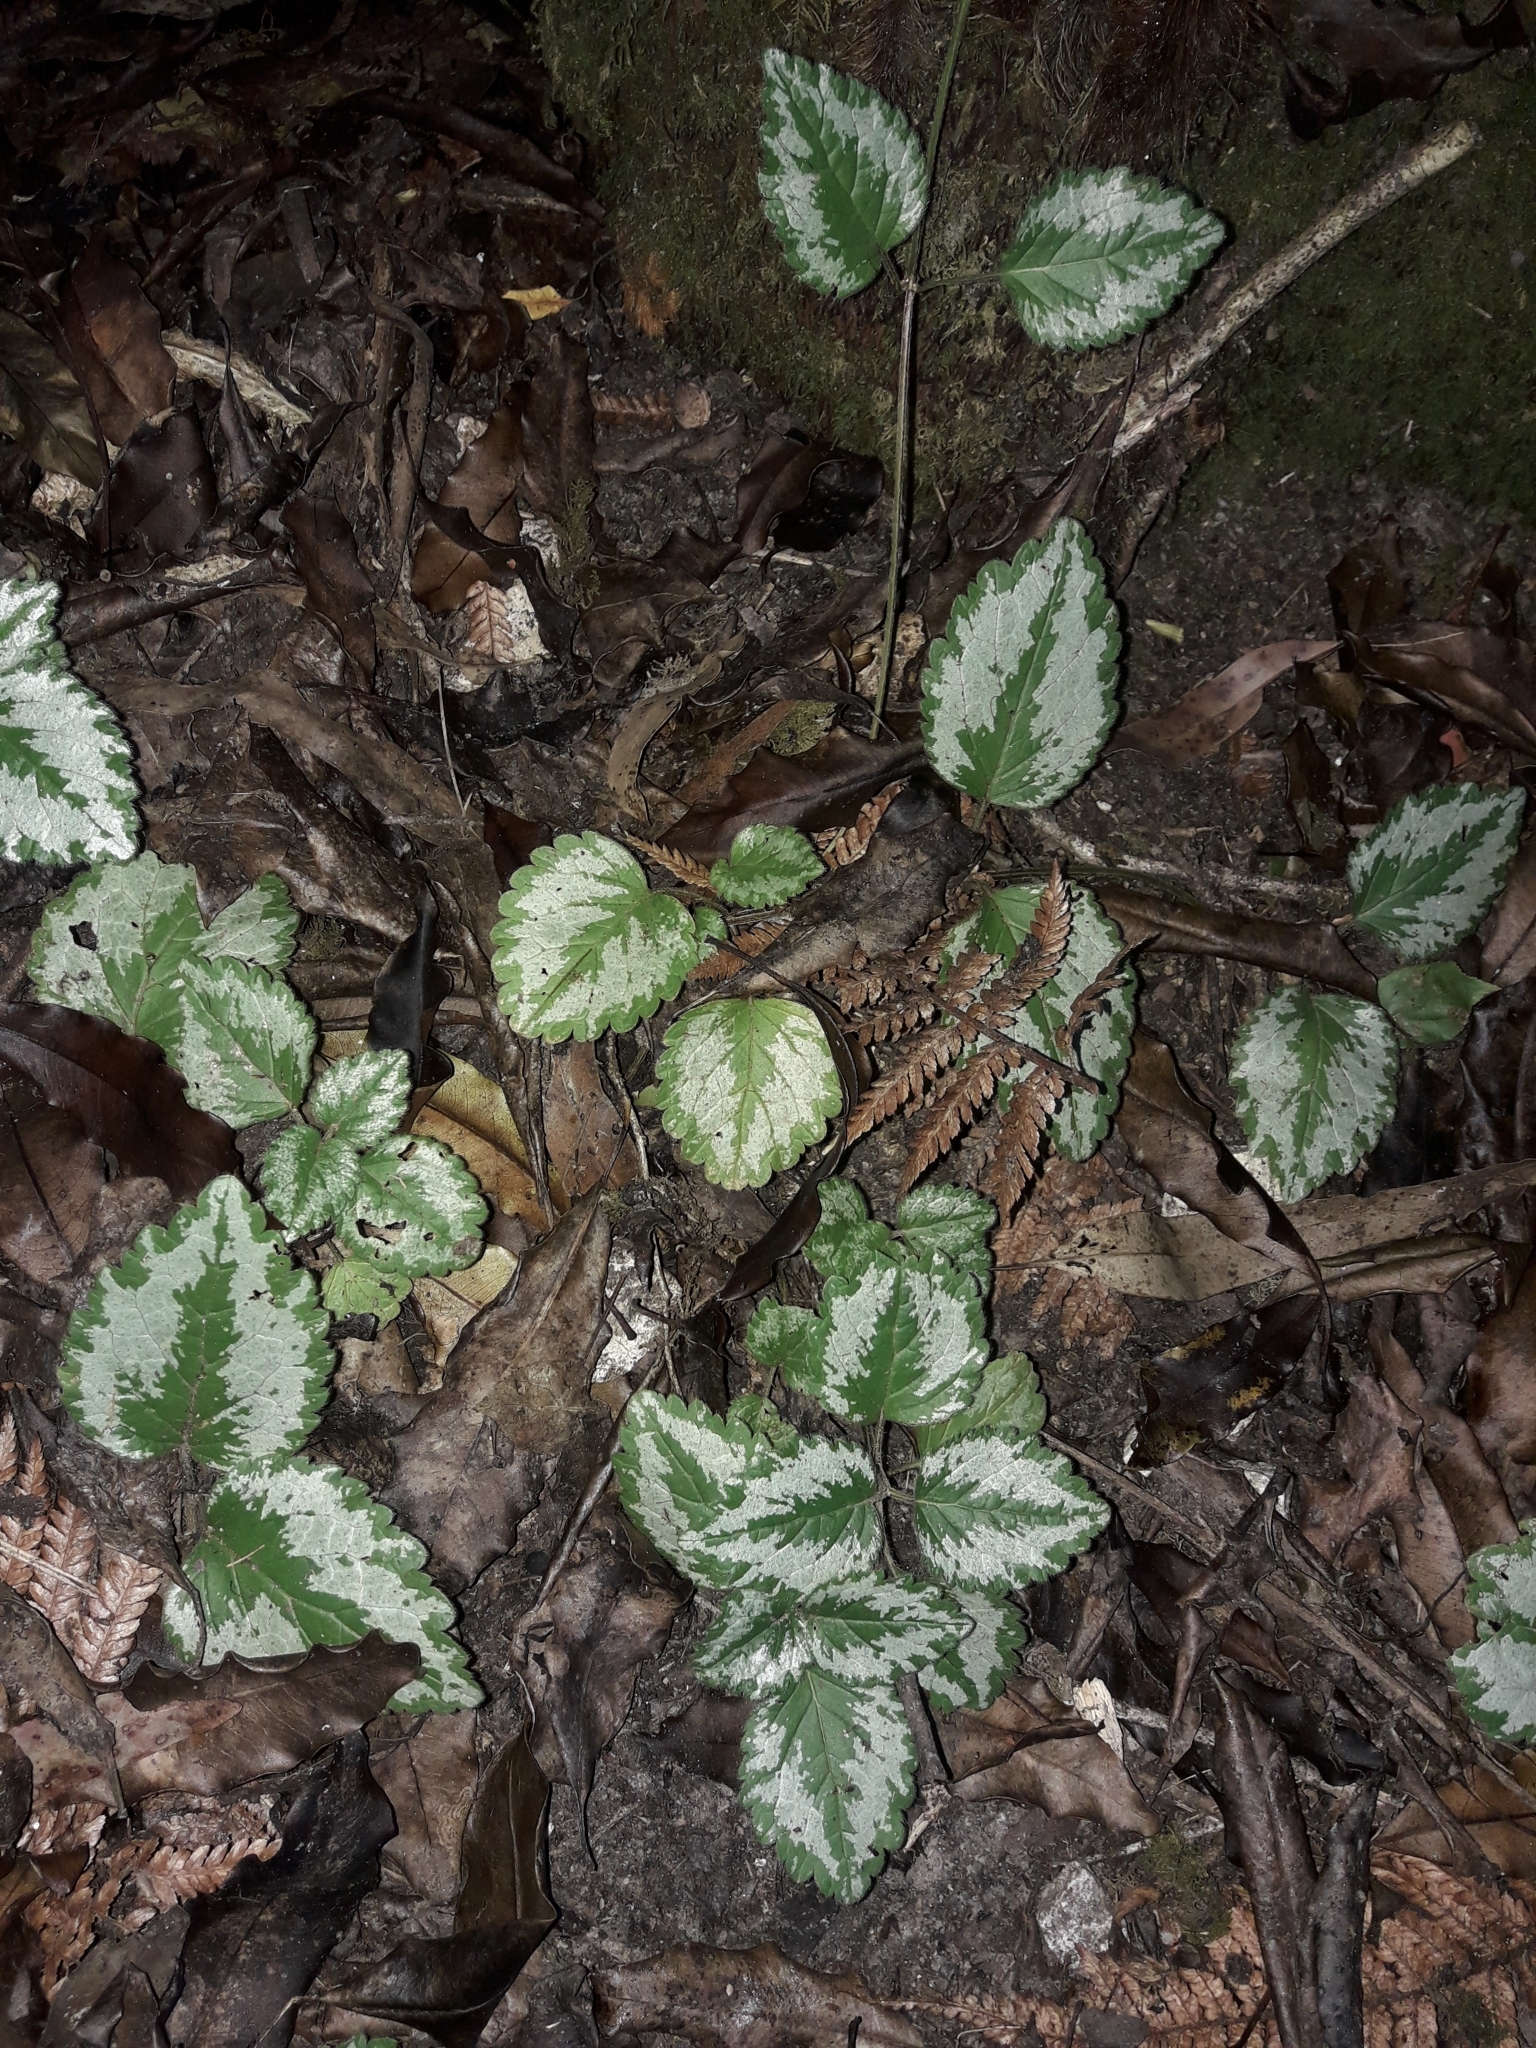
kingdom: Plantae
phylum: Tracheophyta
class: Magnoliopsida
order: Lamiales
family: Lamiaceae
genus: Lamium
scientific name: Lamium galeobdolon
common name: Yellow archangel
